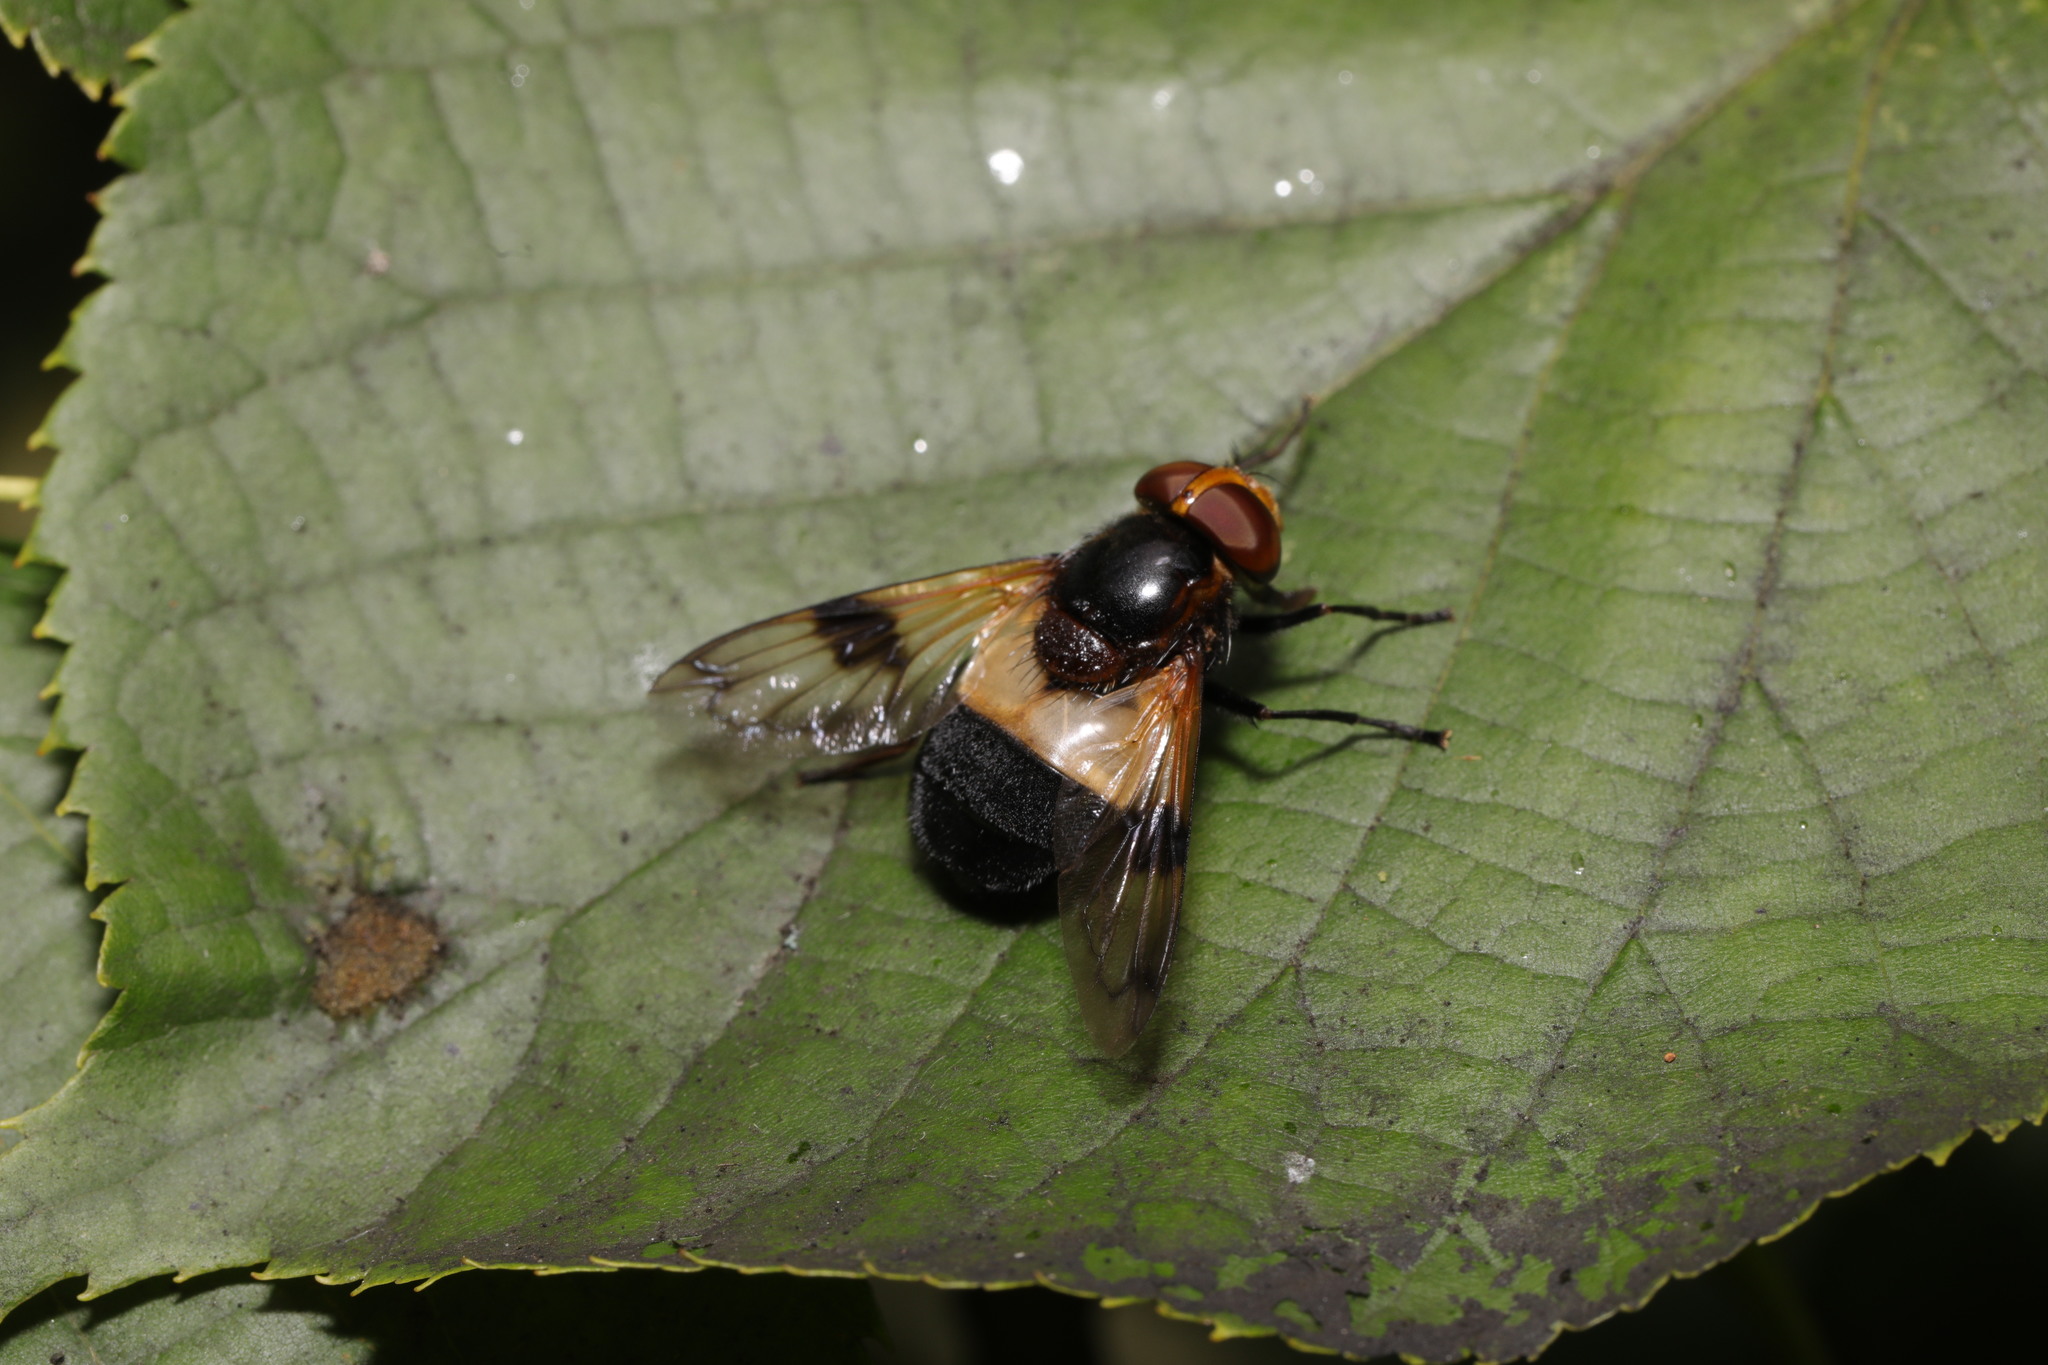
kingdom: Animalia
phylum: Arthropoda
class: Insecta
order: Diptera
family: Syrphidae
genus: Volucella
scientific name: Volucella pellucens
